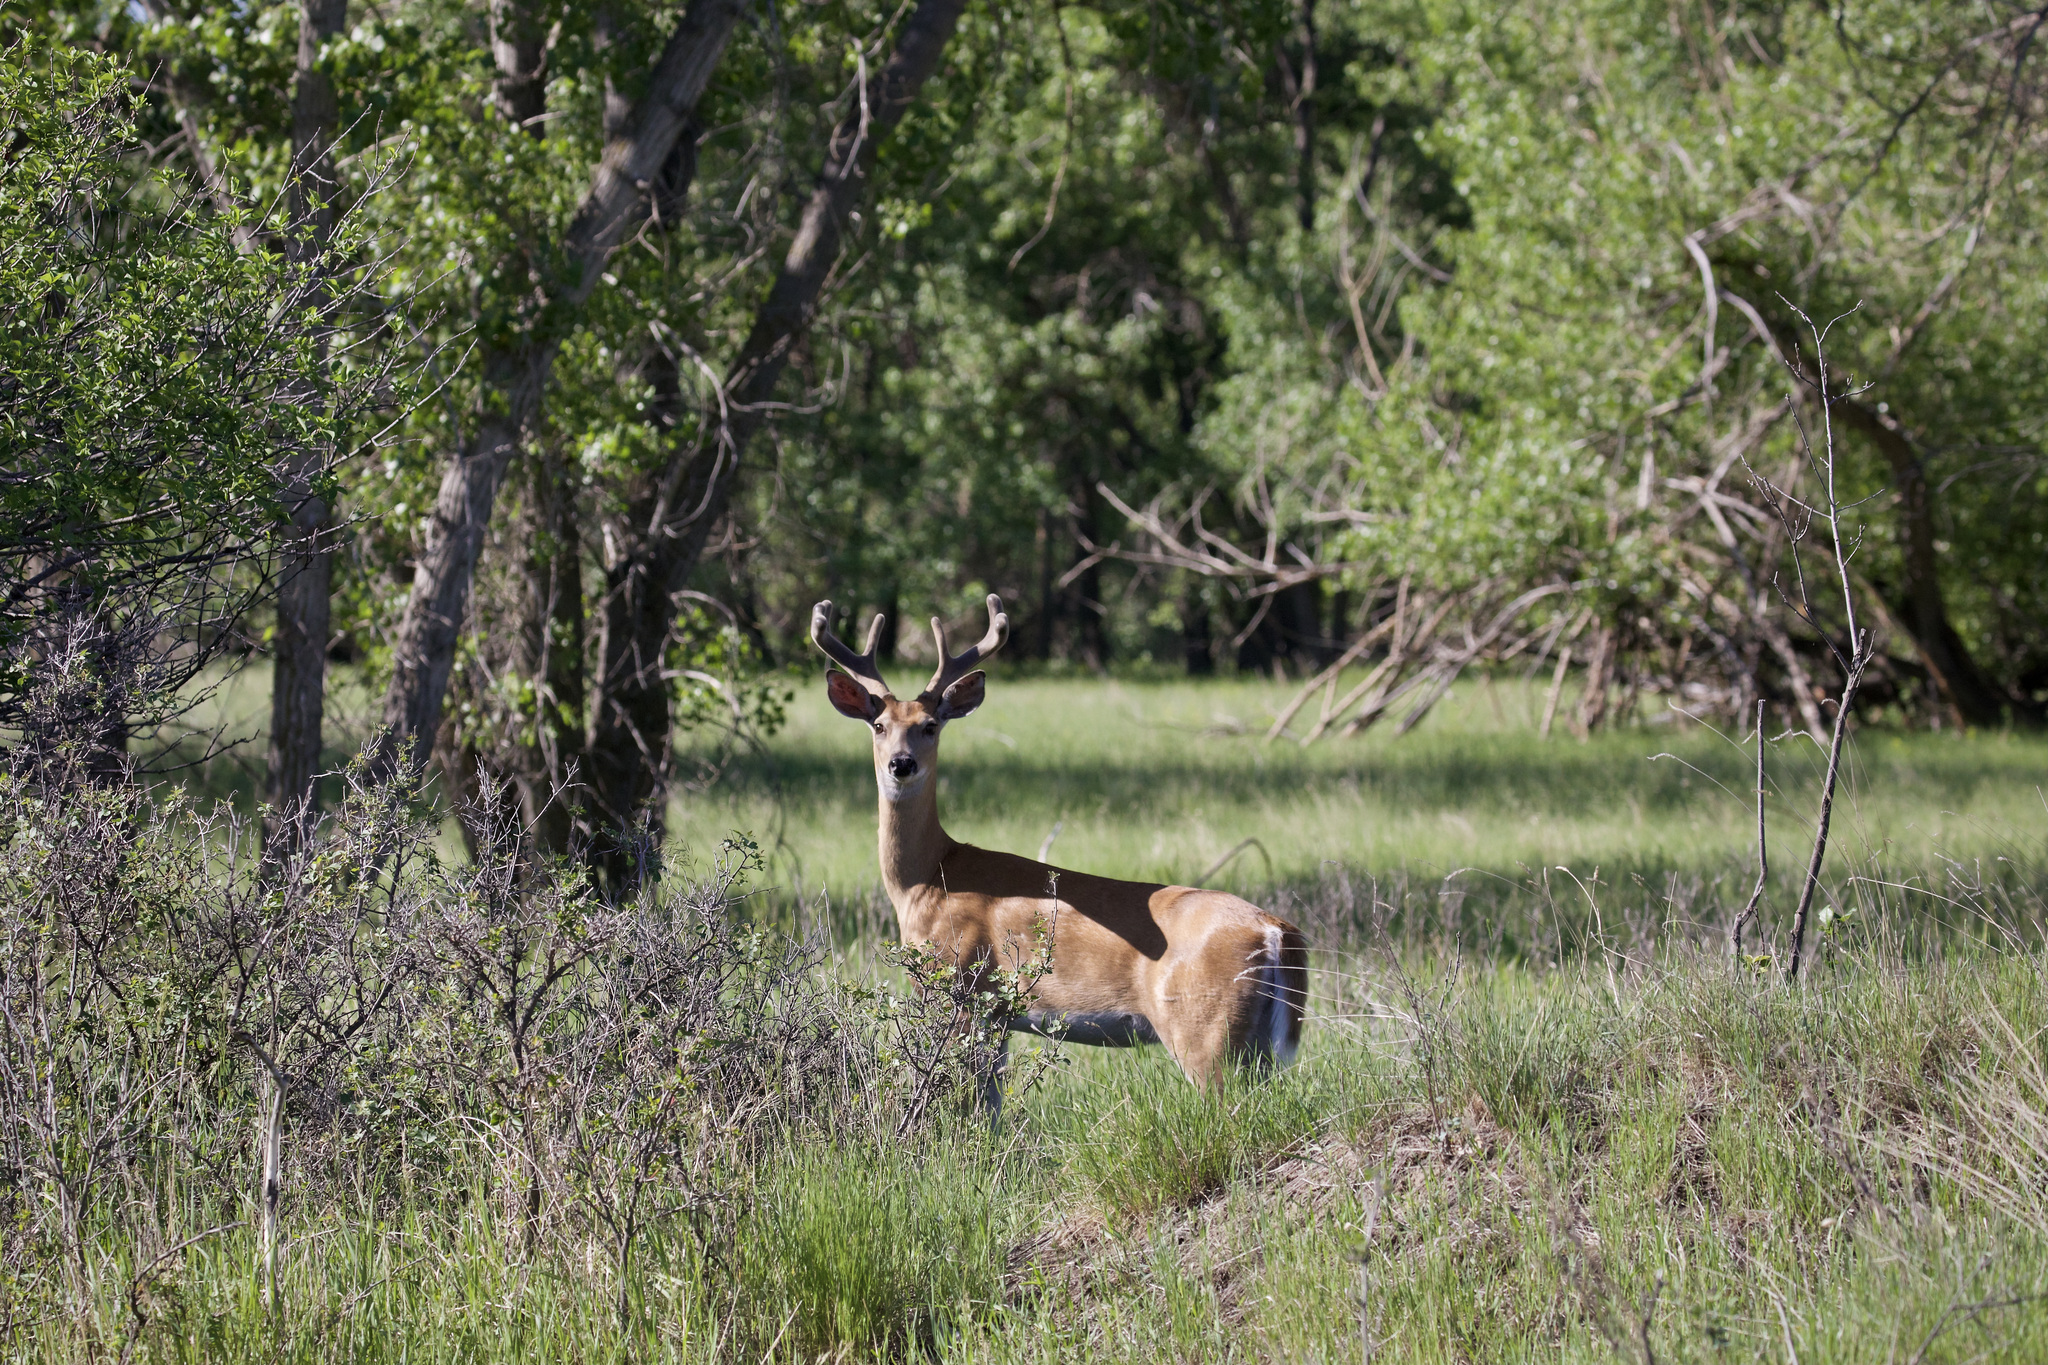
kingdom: Animalia
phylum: Chordata
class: Mammalia
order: Artiodactyla
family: Cervidae
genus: Odocoileus
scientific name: Odocoileus virginianus
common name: White-tailed deer
